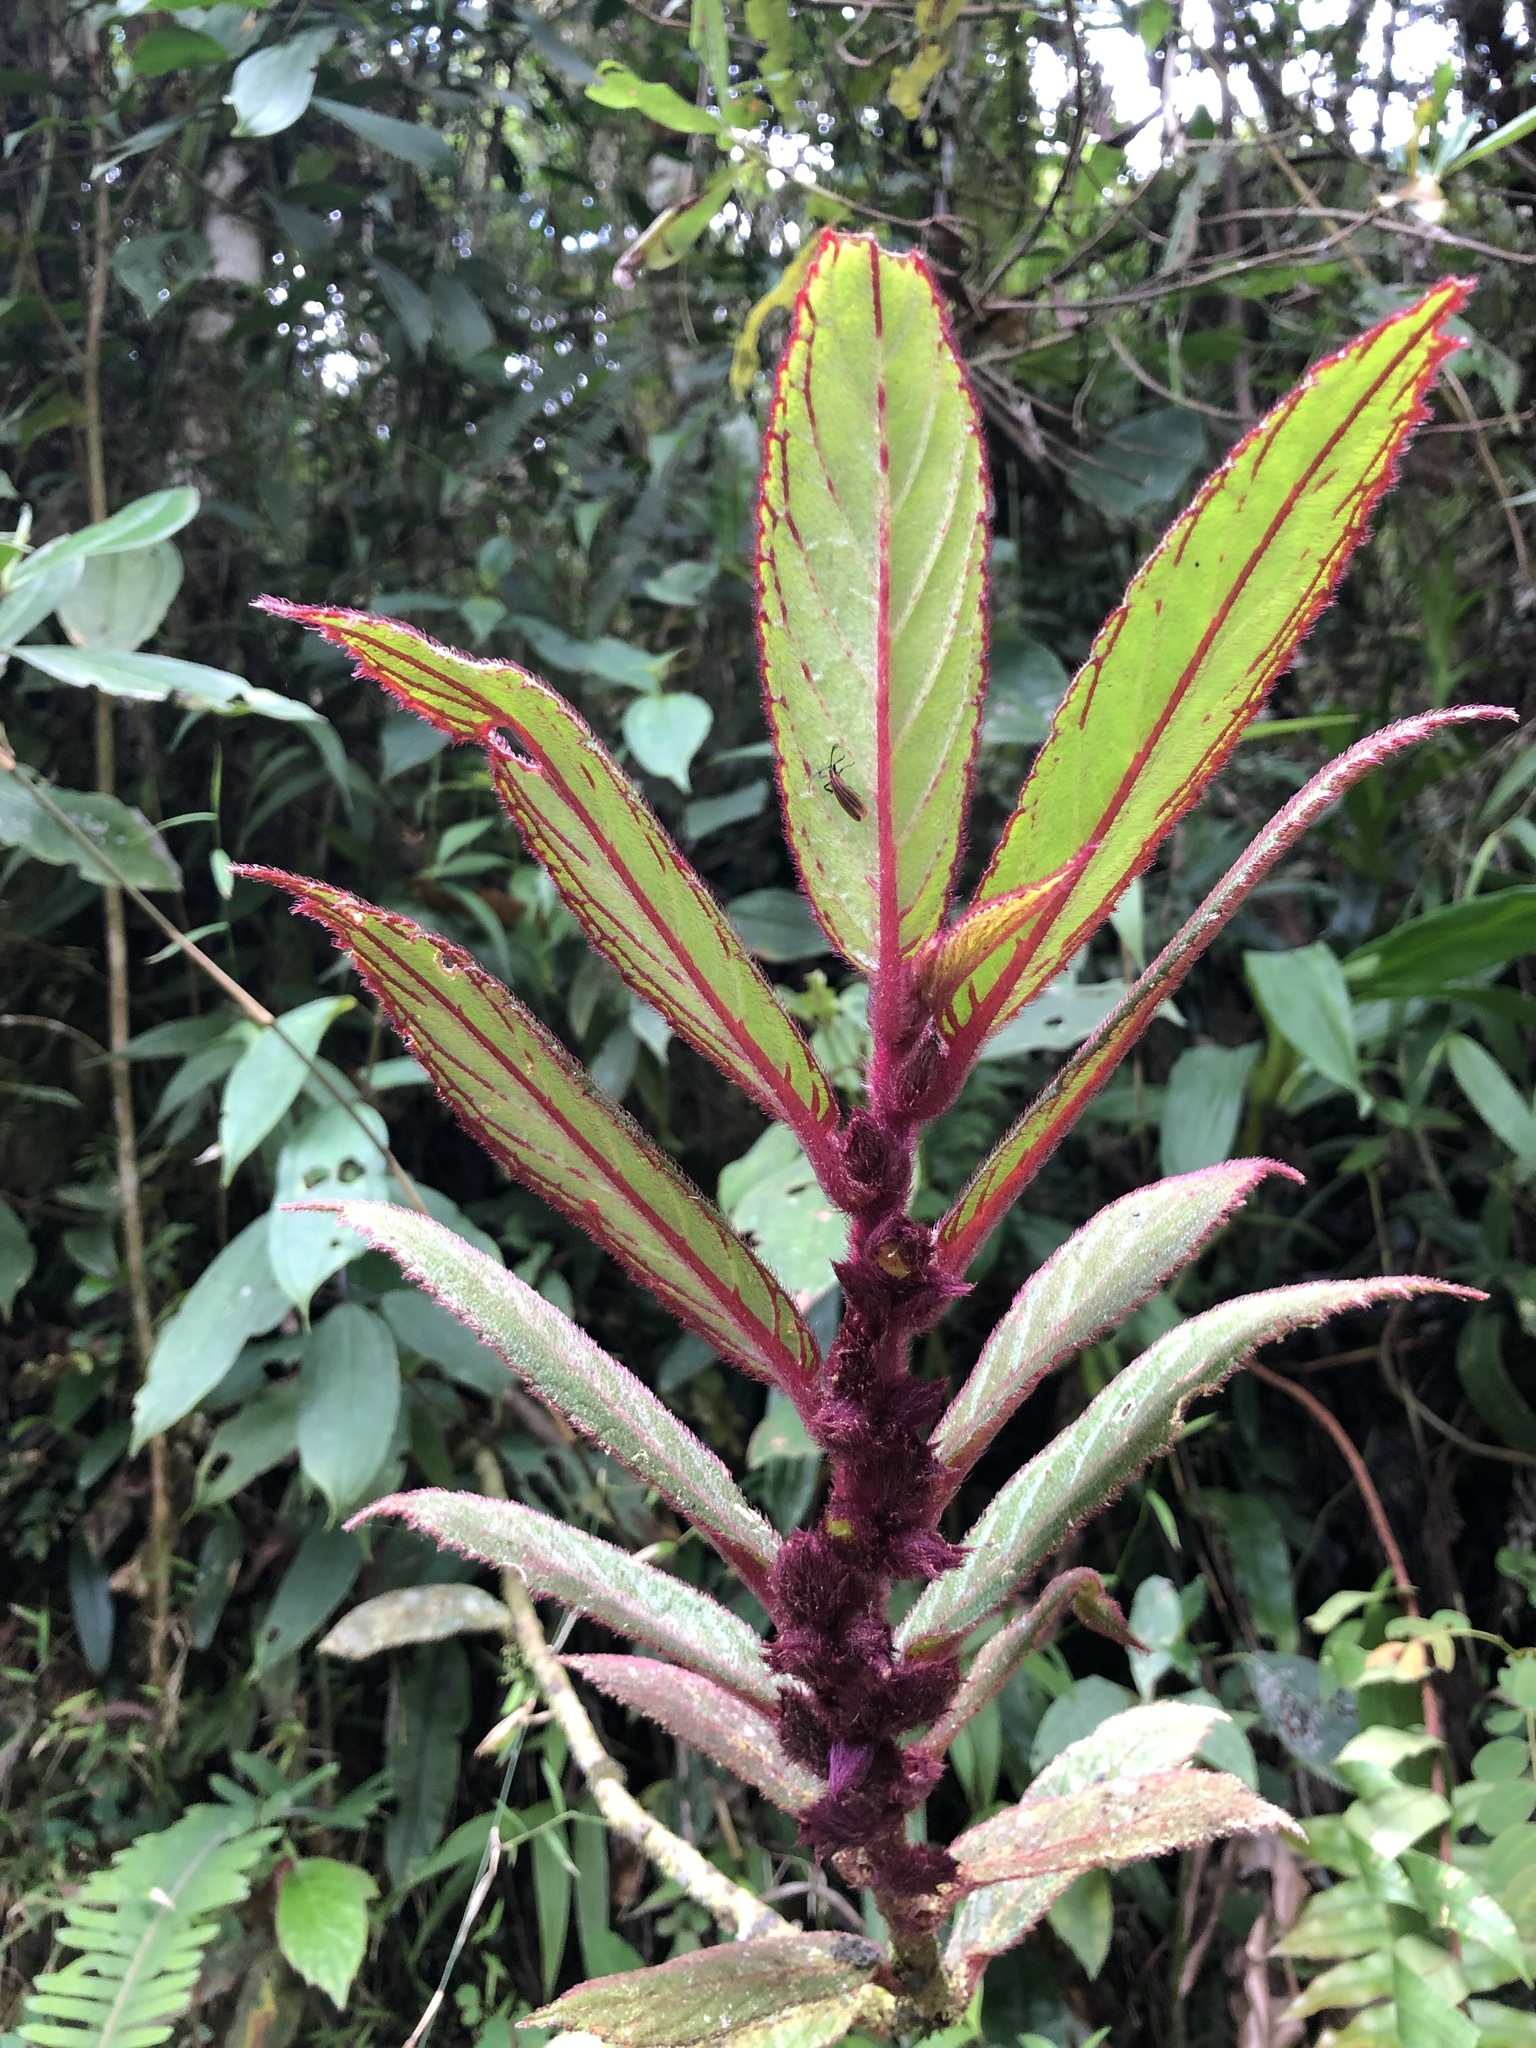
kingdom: Plantae
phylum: Tracheophyta
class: Magnoliopsida
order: Lamiales
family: Gesneriaceae
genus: Columnea
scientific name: Columnea purpurata
